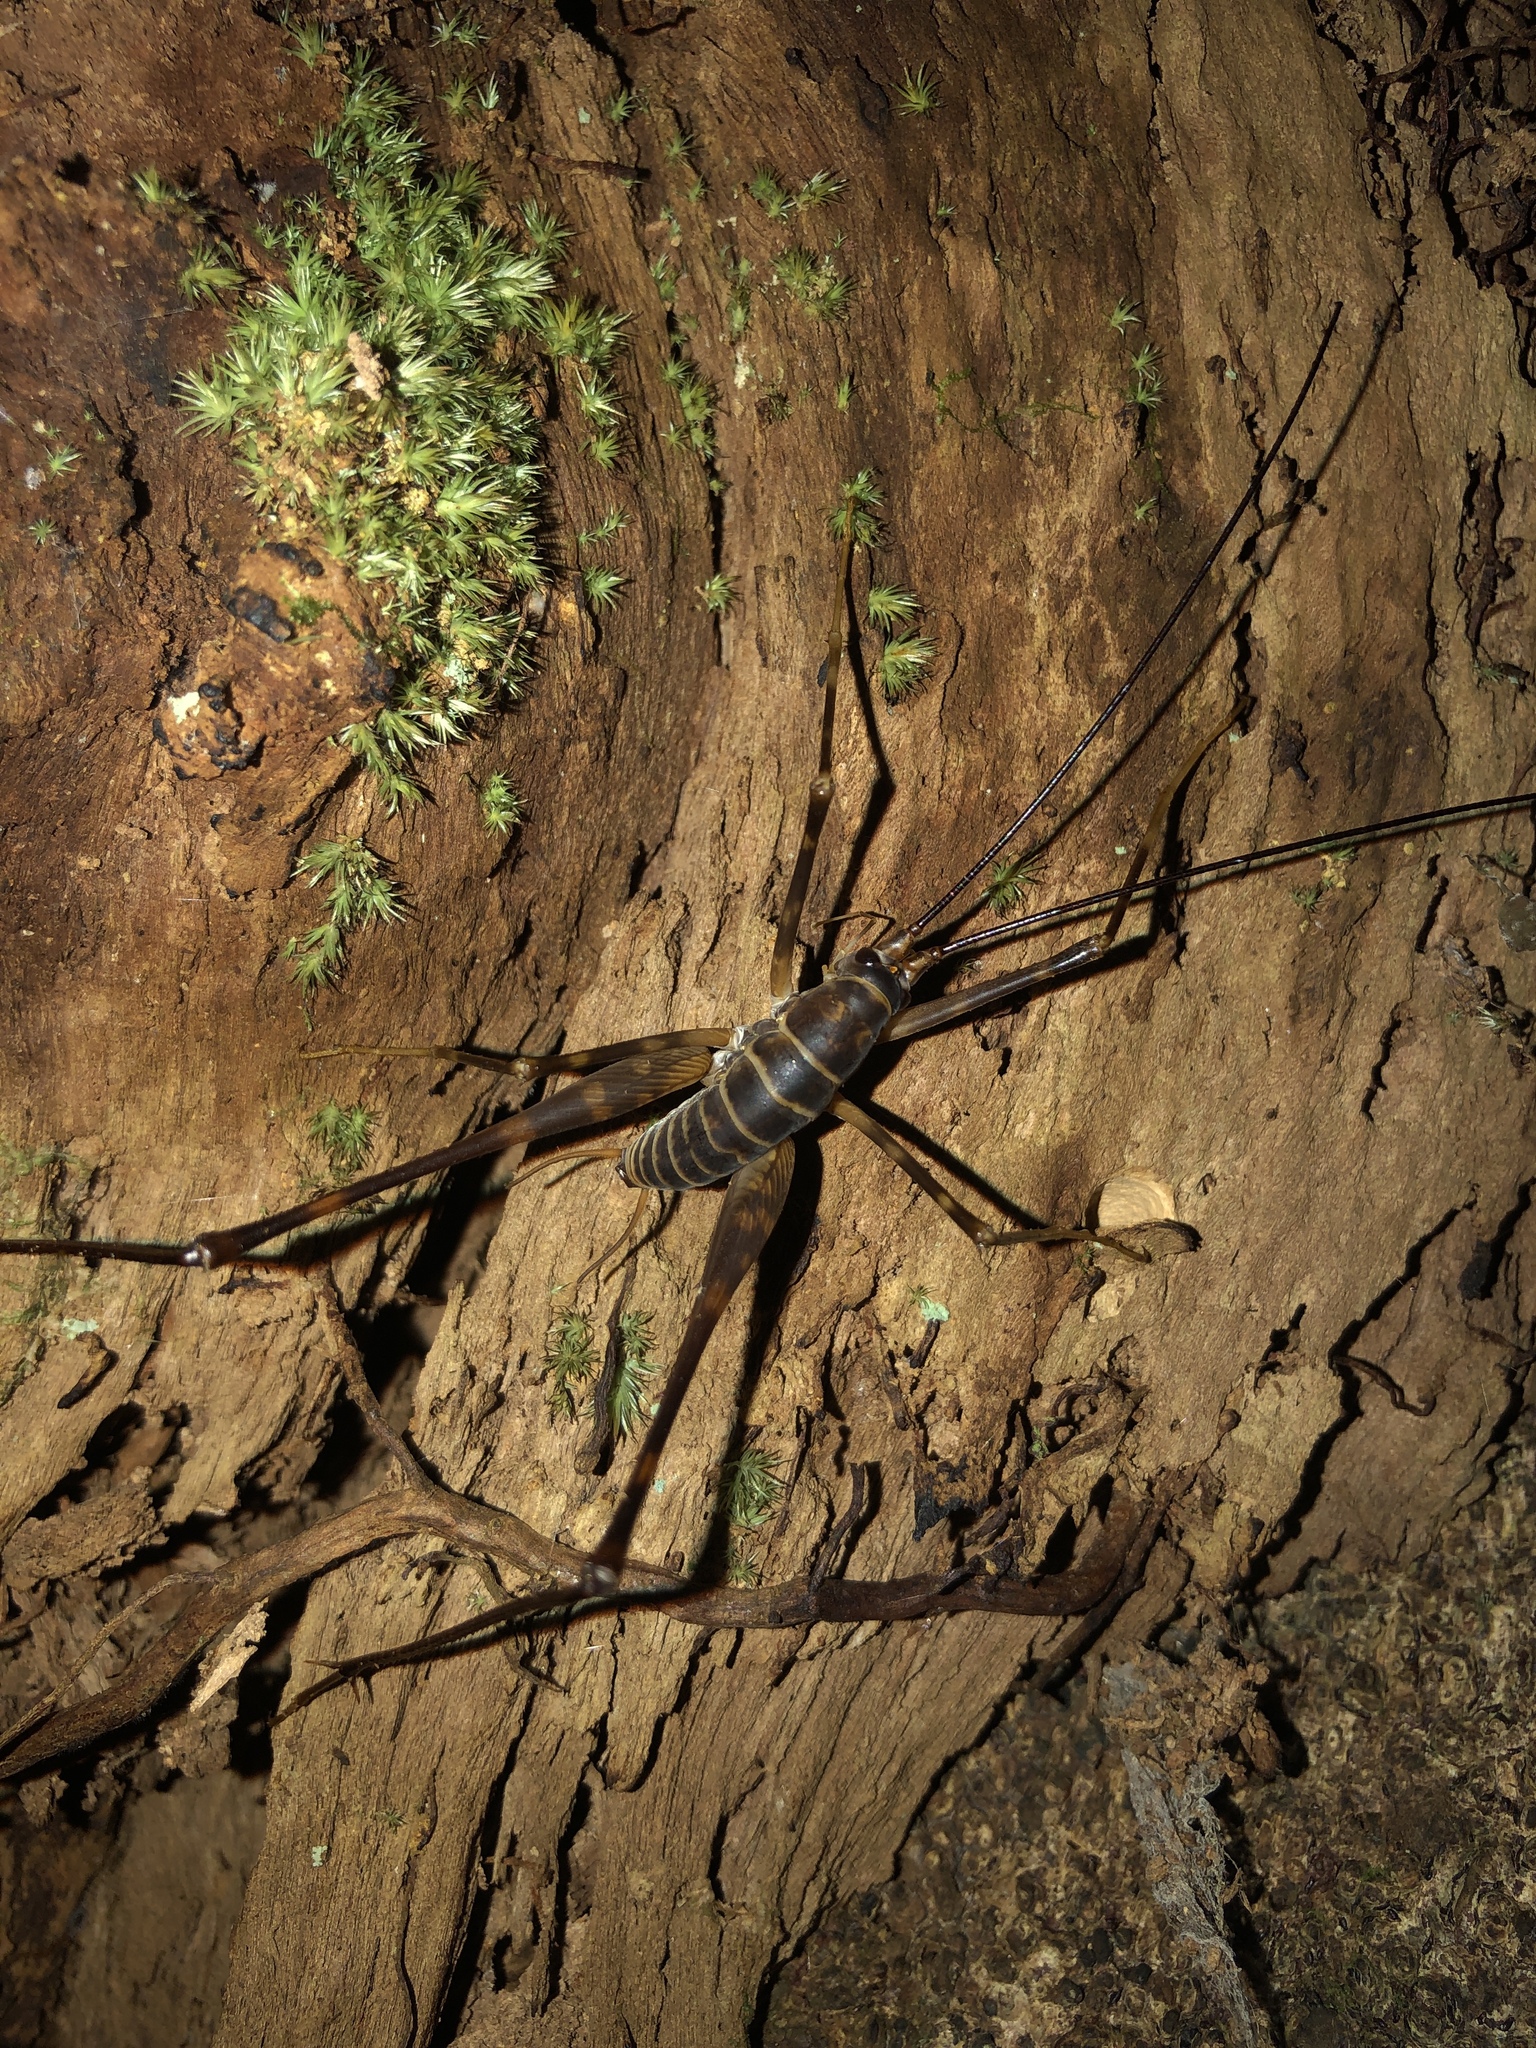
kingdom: Animalia
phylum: Arthropoda
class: Insecta
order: Orthoptera
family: Rhaphidophoridae
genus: Pachyrhamma
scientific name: Pachyrhamma acanthocera
